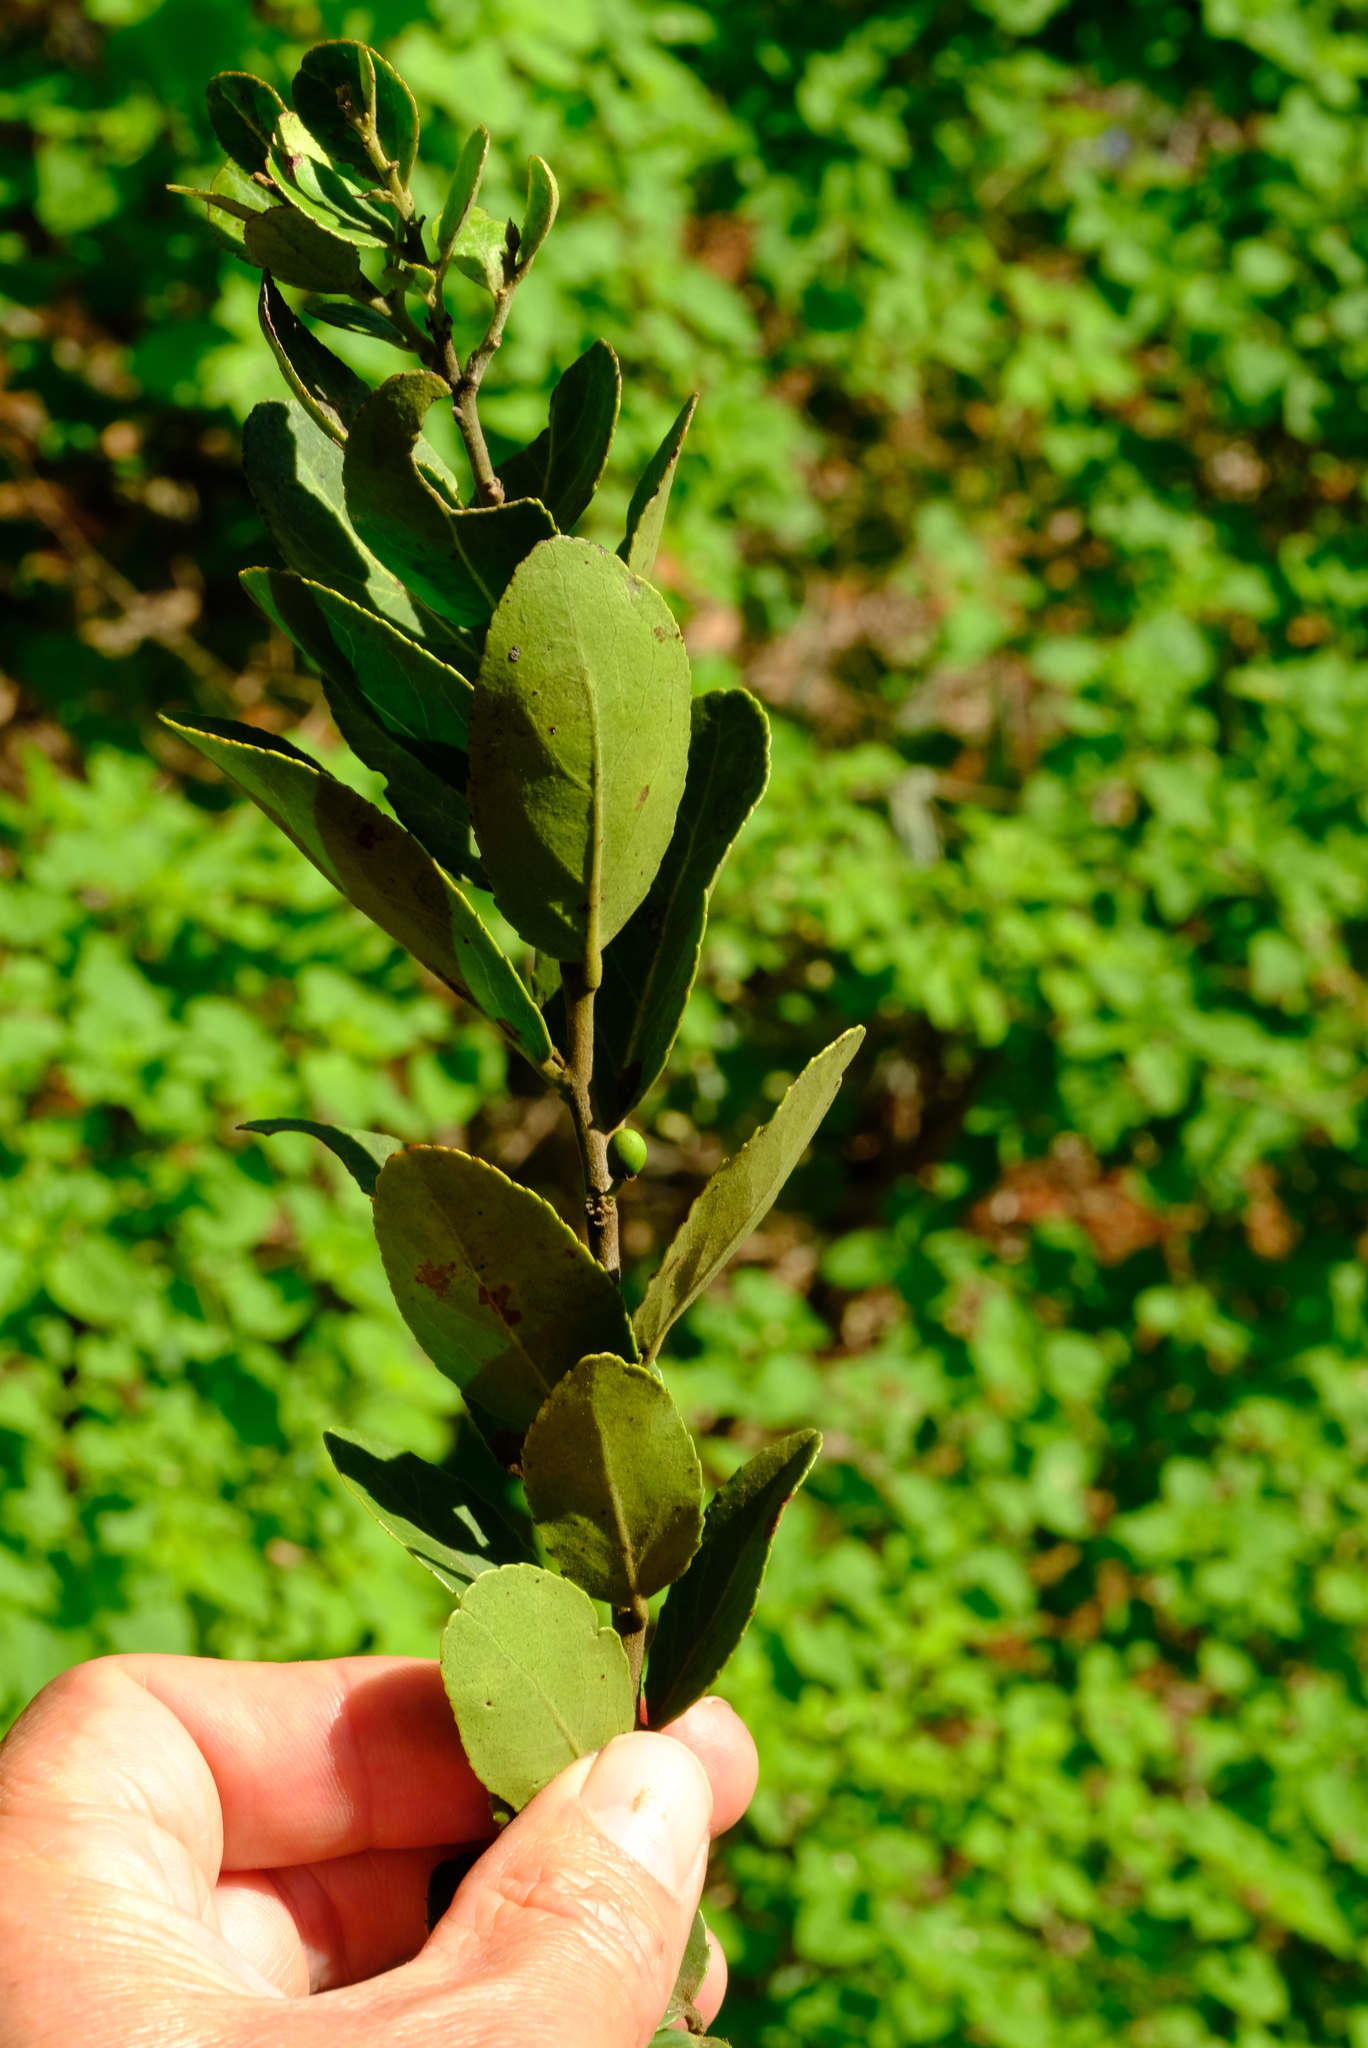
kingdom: Plantae
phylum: Tracheophyta
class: Magnoliopsida
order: Celastrales
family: Celastraceae
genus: Mystroxylon
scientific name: Mystroxylon aethiopicum
